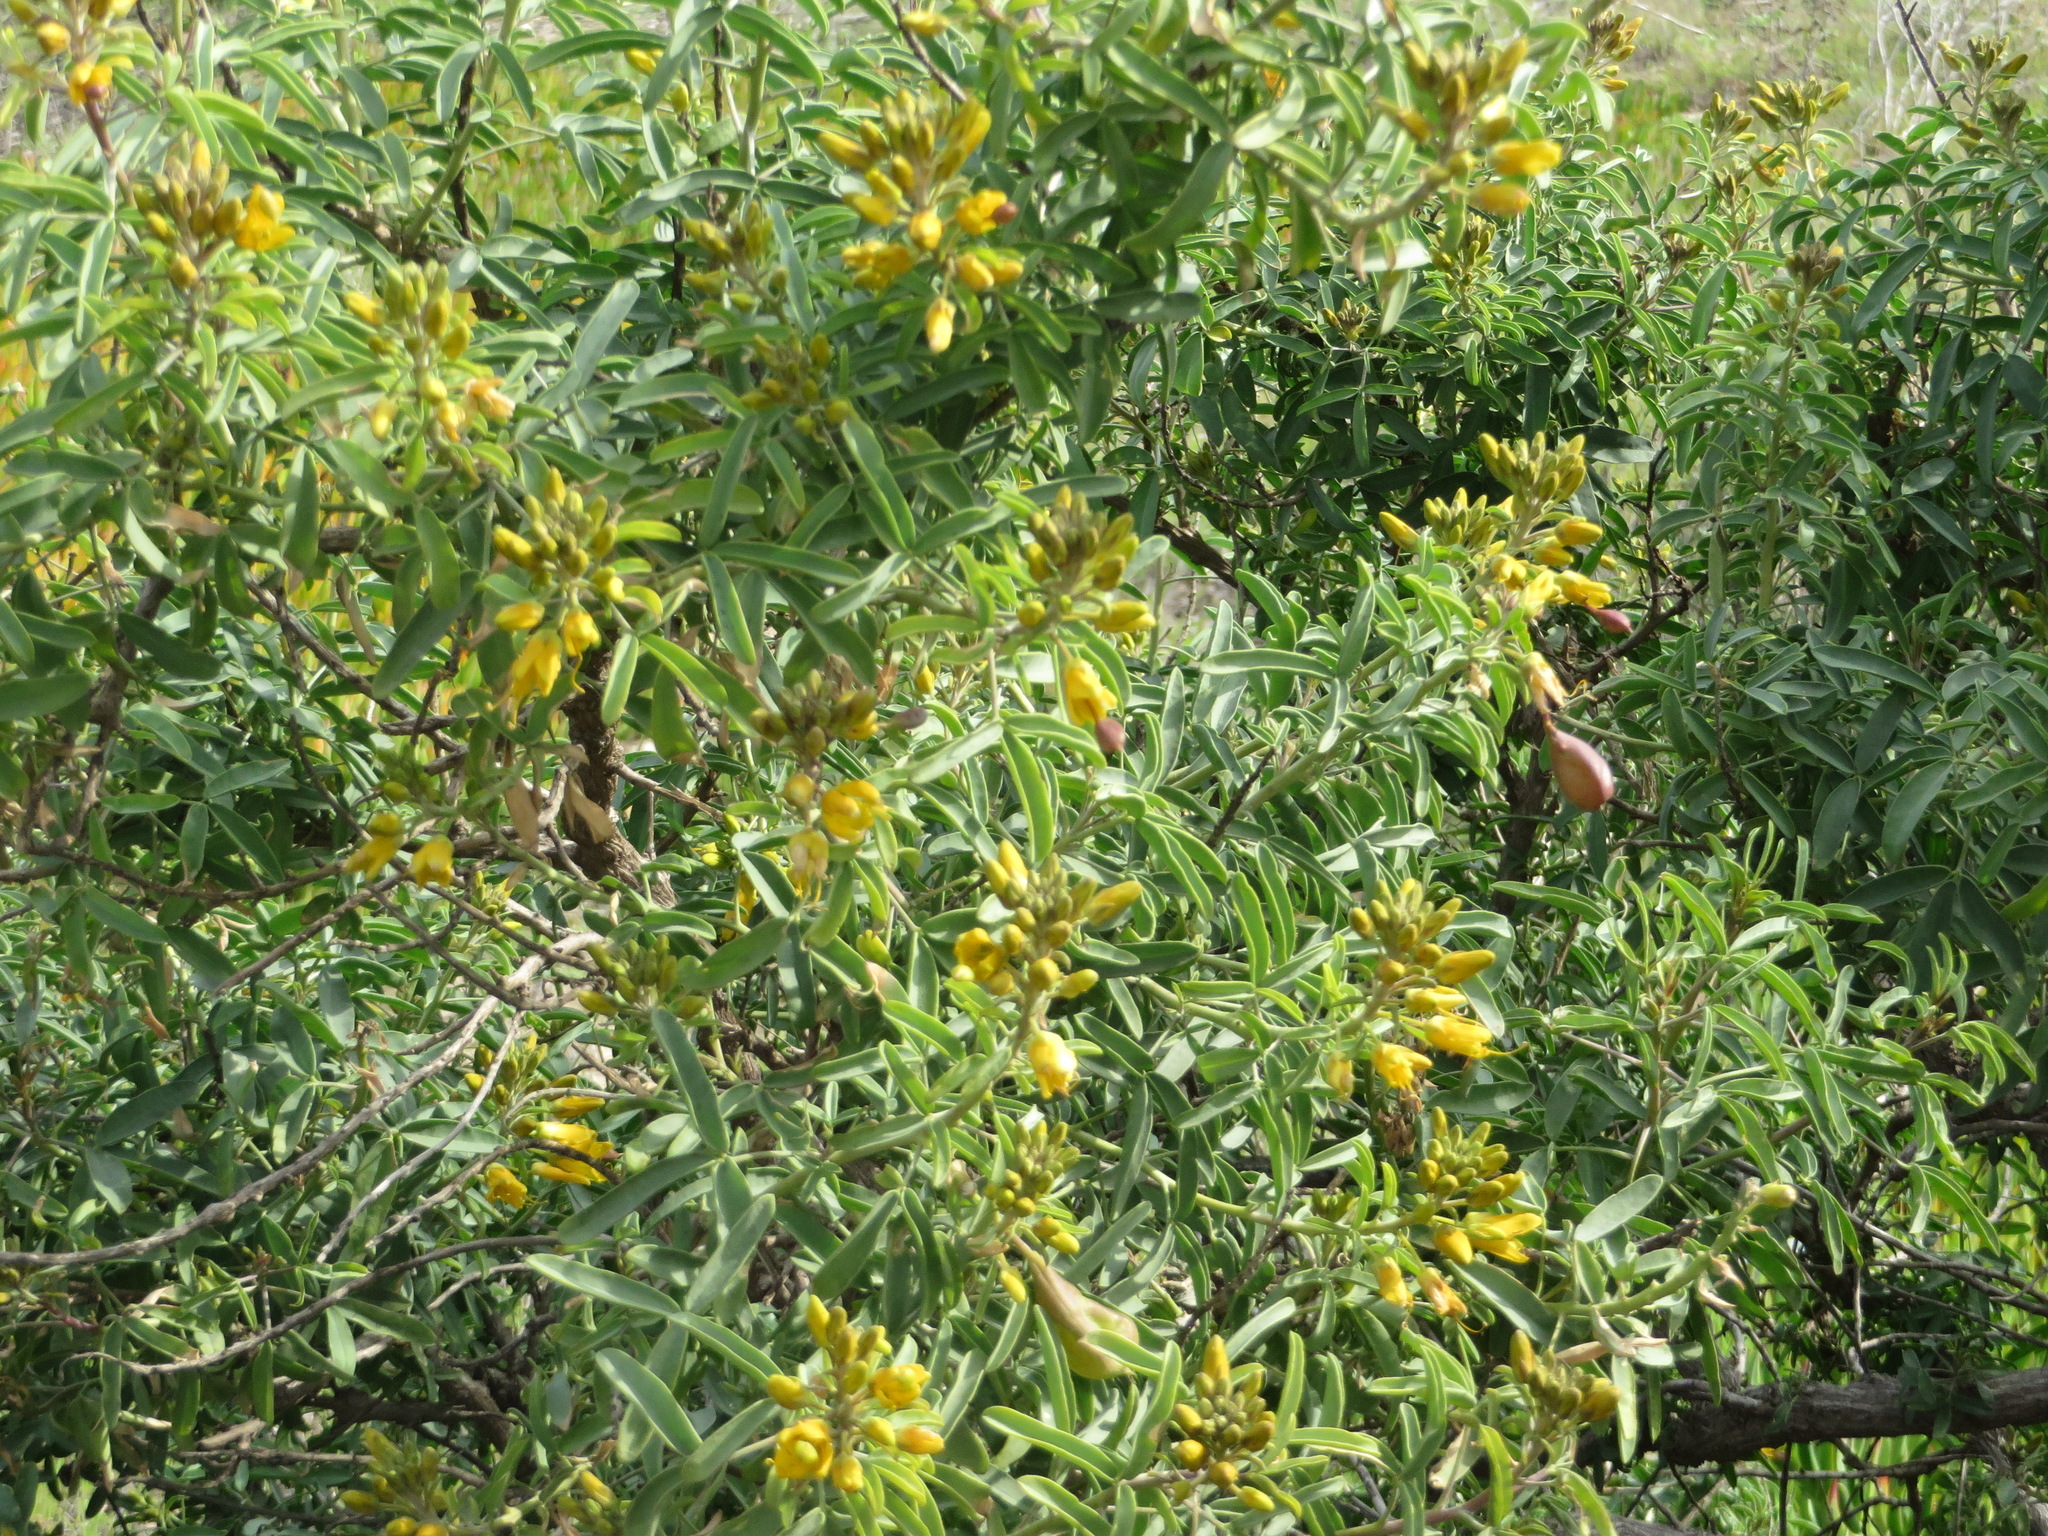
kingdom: Plantae
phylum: Tracheophyta
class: Magnoliopsida
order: Brassicales
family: Cleomaceae
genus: Cleomella
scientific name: Cleomella arborea
